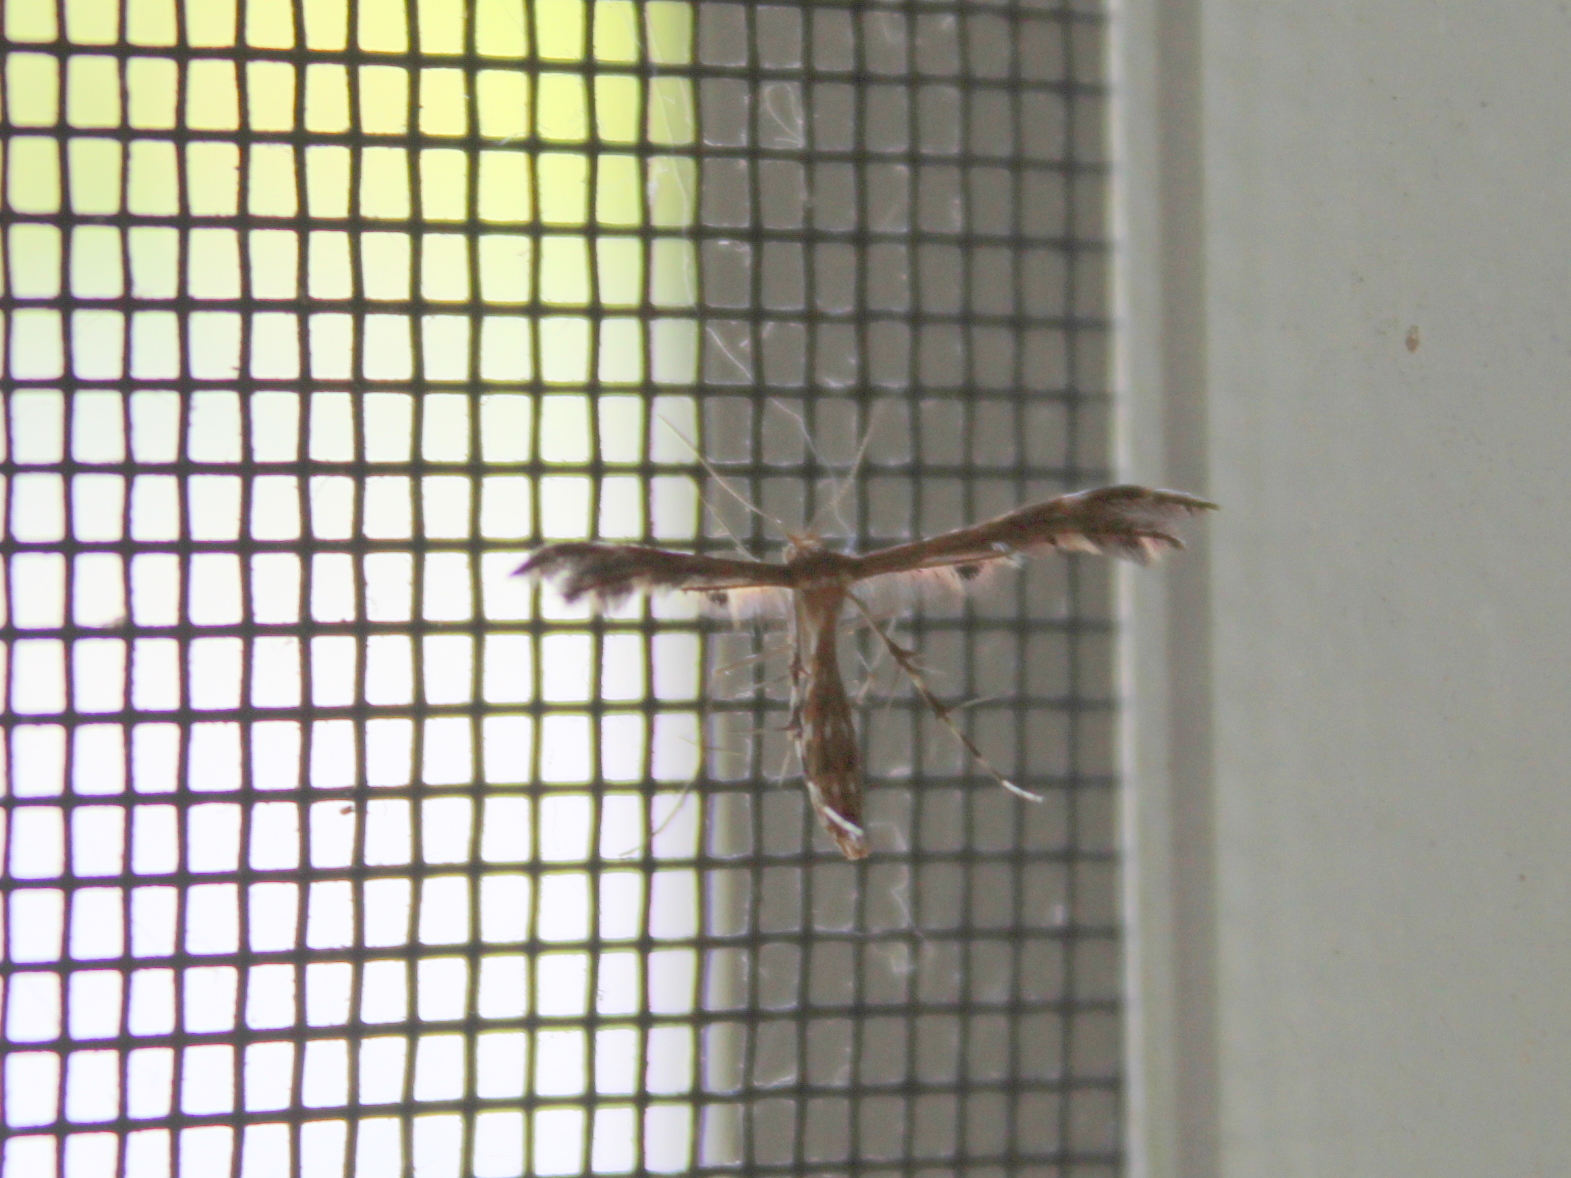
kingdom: Animalia
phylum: Arthropoda
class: Insecta
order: Lepidoptera
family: Pterophoridae
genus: Dejongia
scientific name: Dejongia lobidactylus
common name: Lobed plume moth
